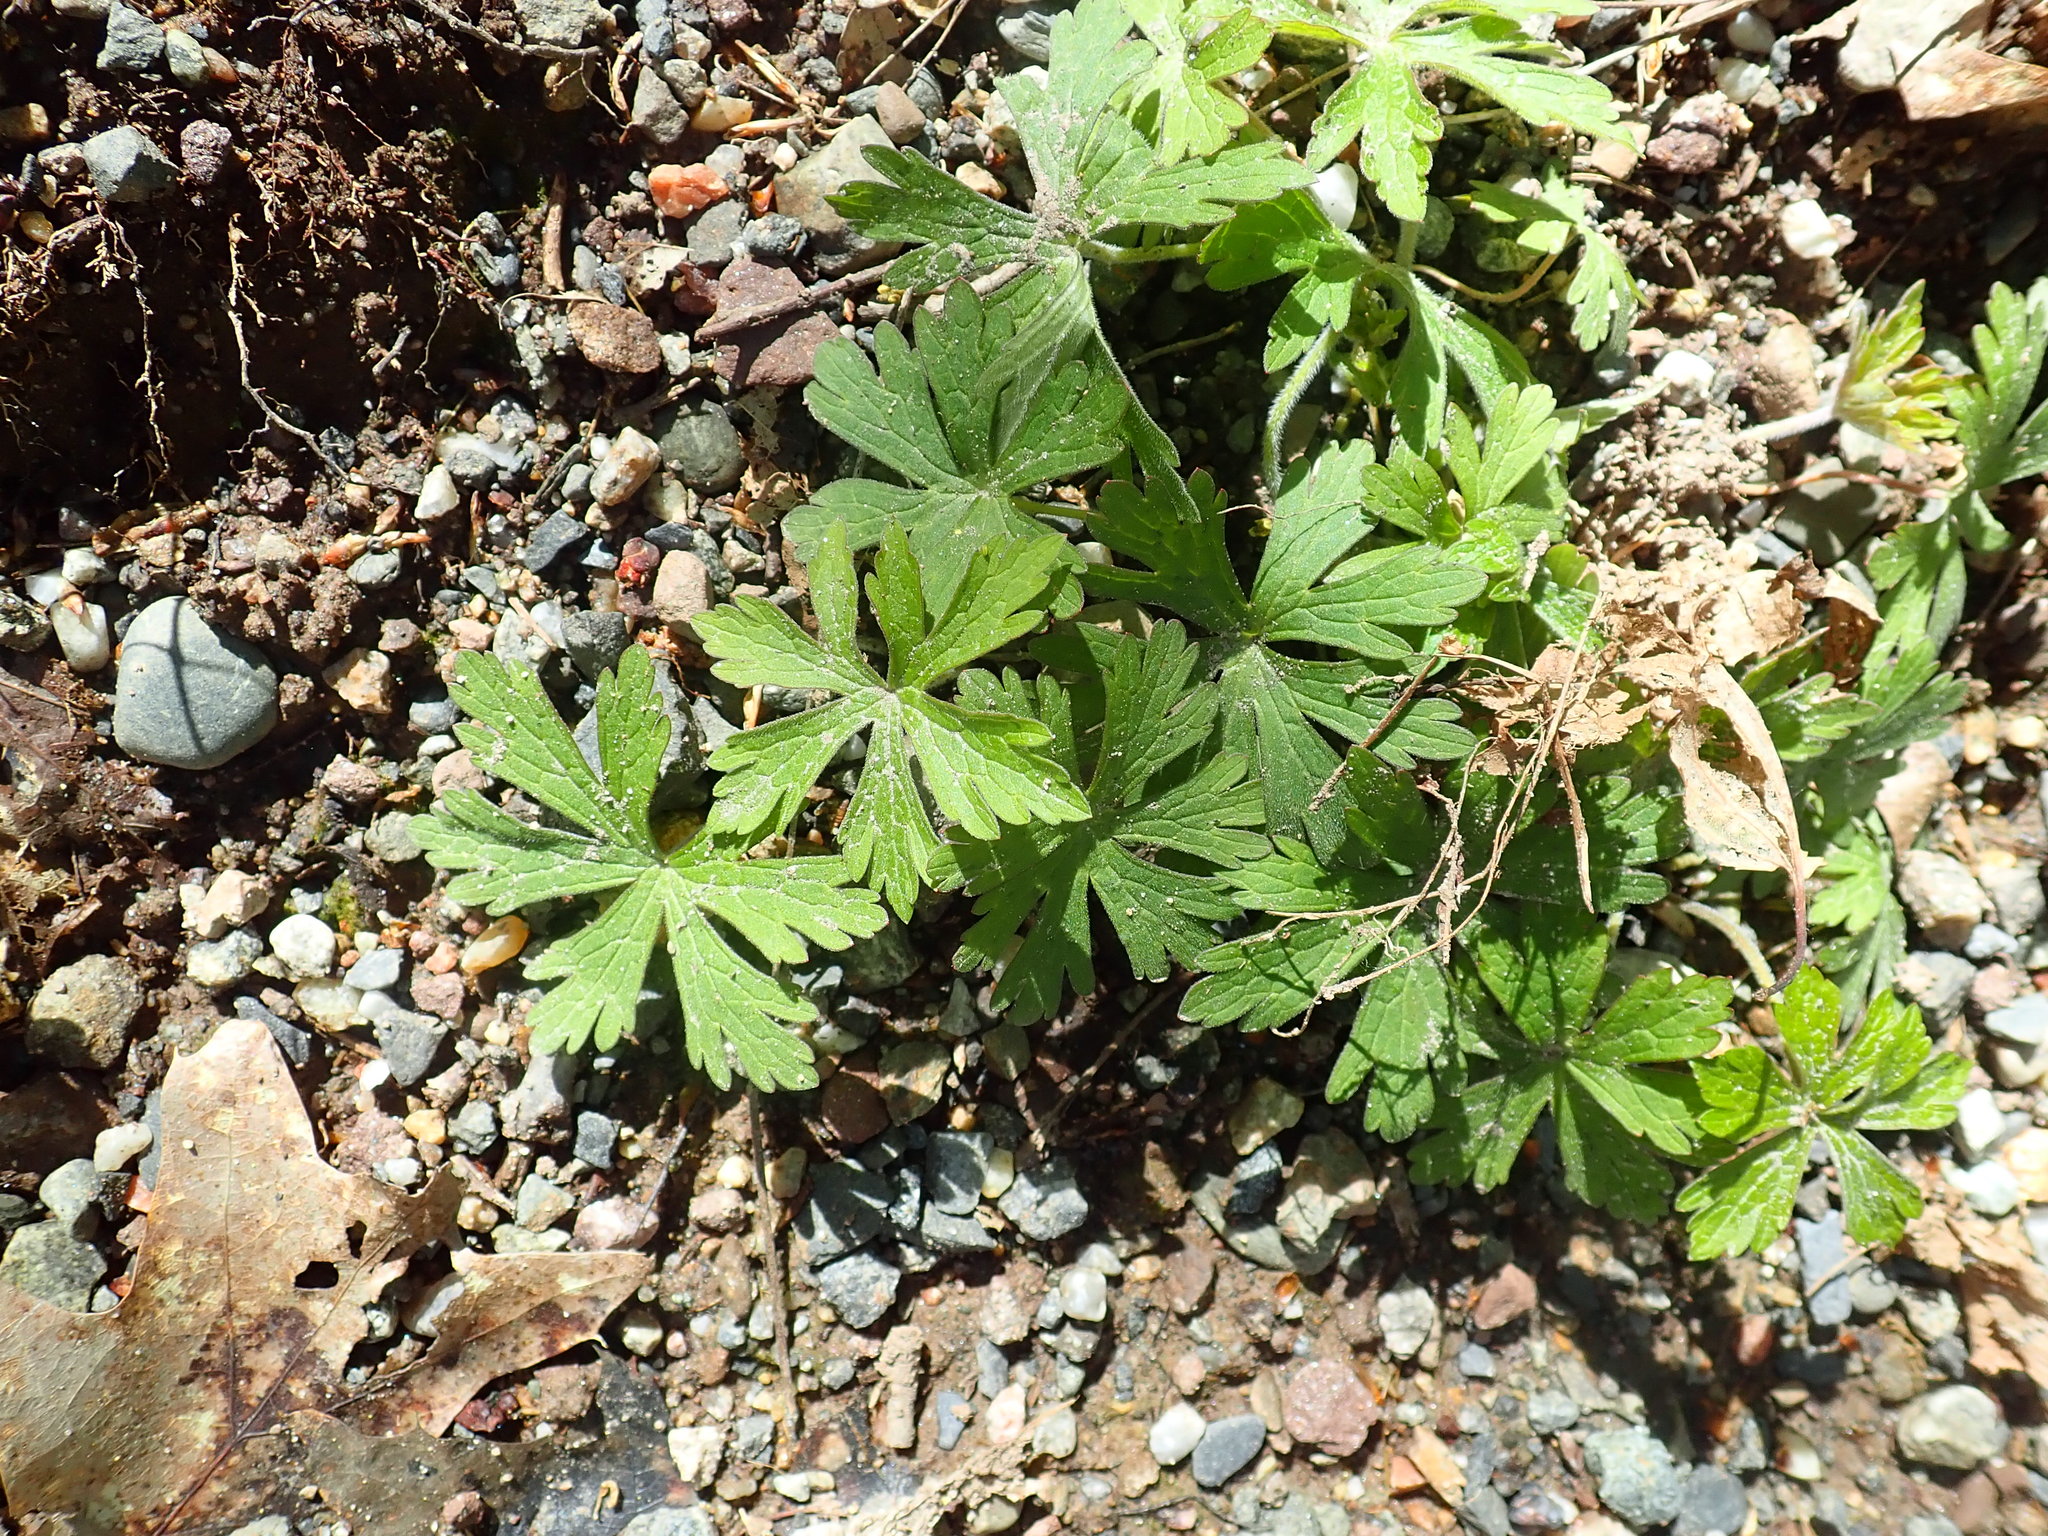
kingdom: Plantae
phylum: Tracheophyta
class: Magnoliopsida
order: Geraniales
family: Geraniaceae
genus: Geranium
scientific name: Geranium maculatum
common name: Spotted geranium
